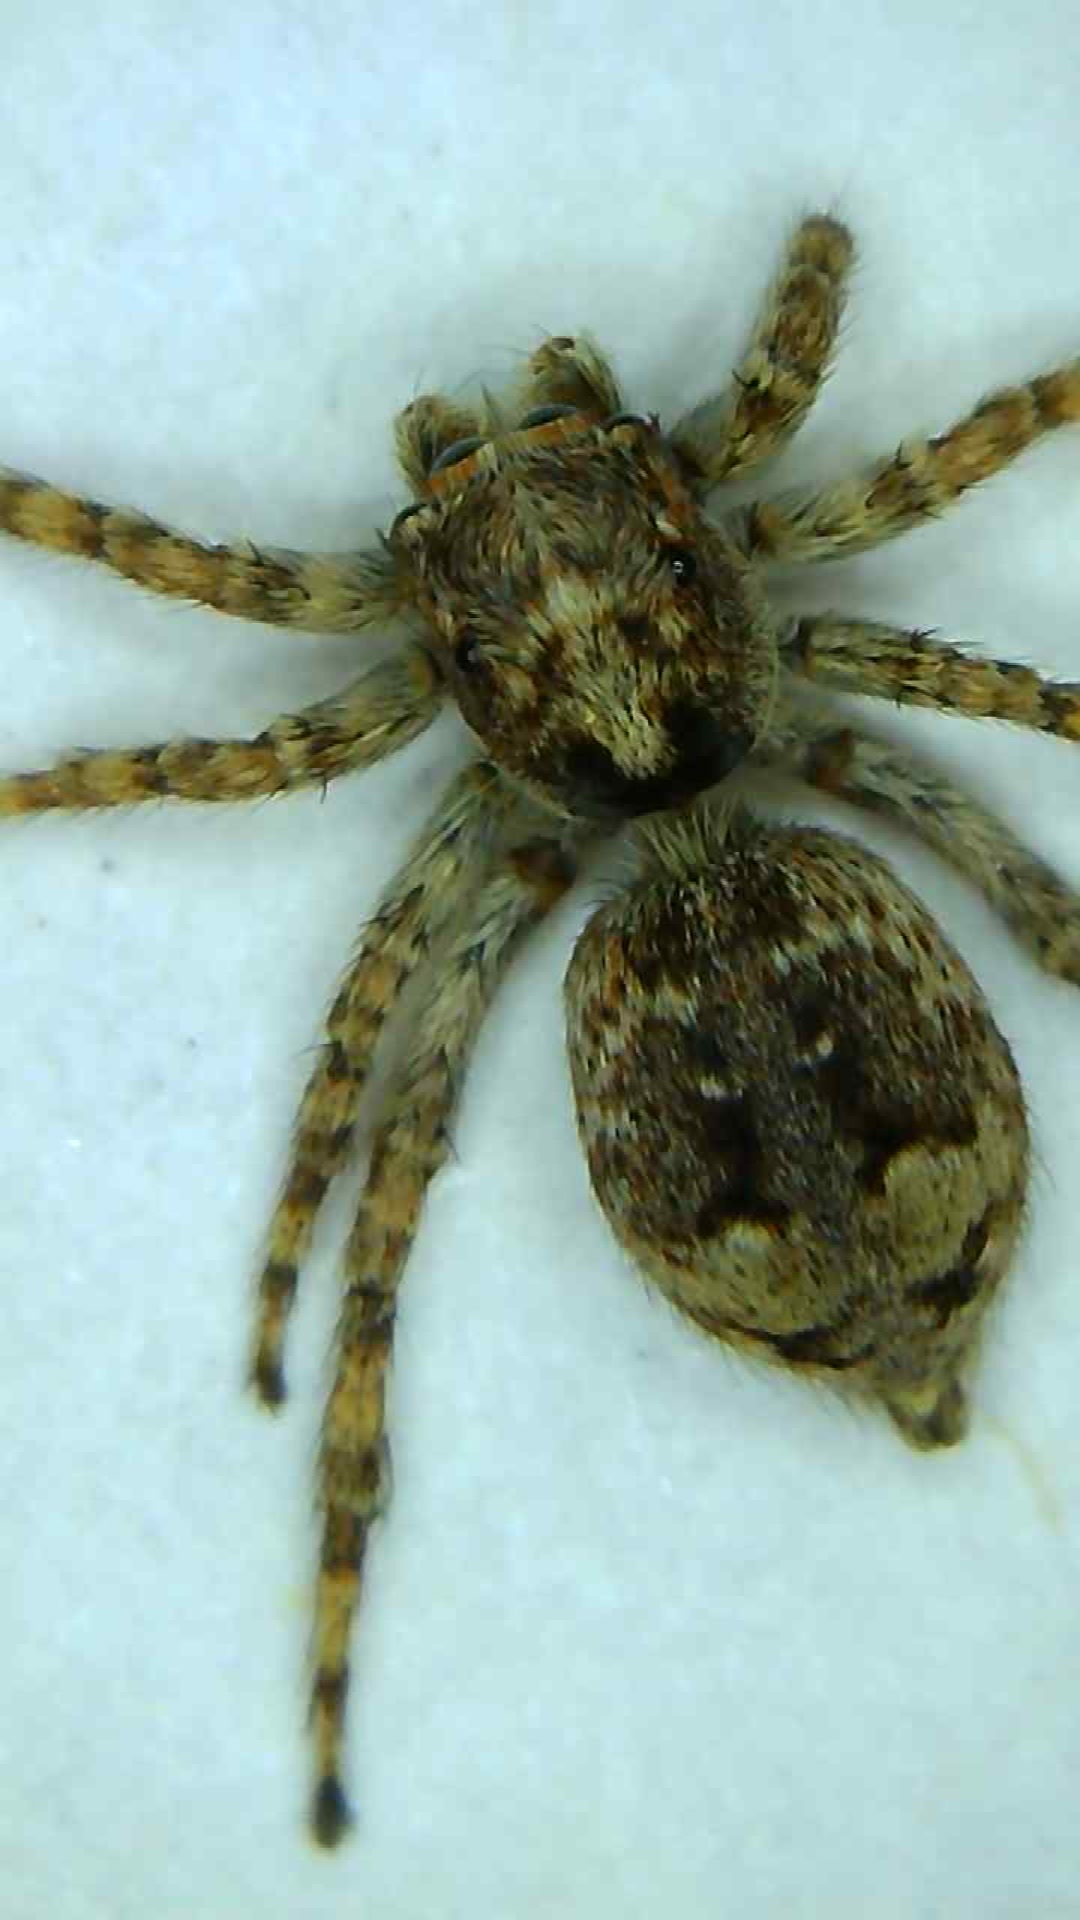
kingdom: Animalia
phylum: Arthropoda
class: Arachnida
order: Araneae
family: Salticidae
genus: Attulus
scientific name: Attulus fasciger
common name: Asiatic wall jumping spider
